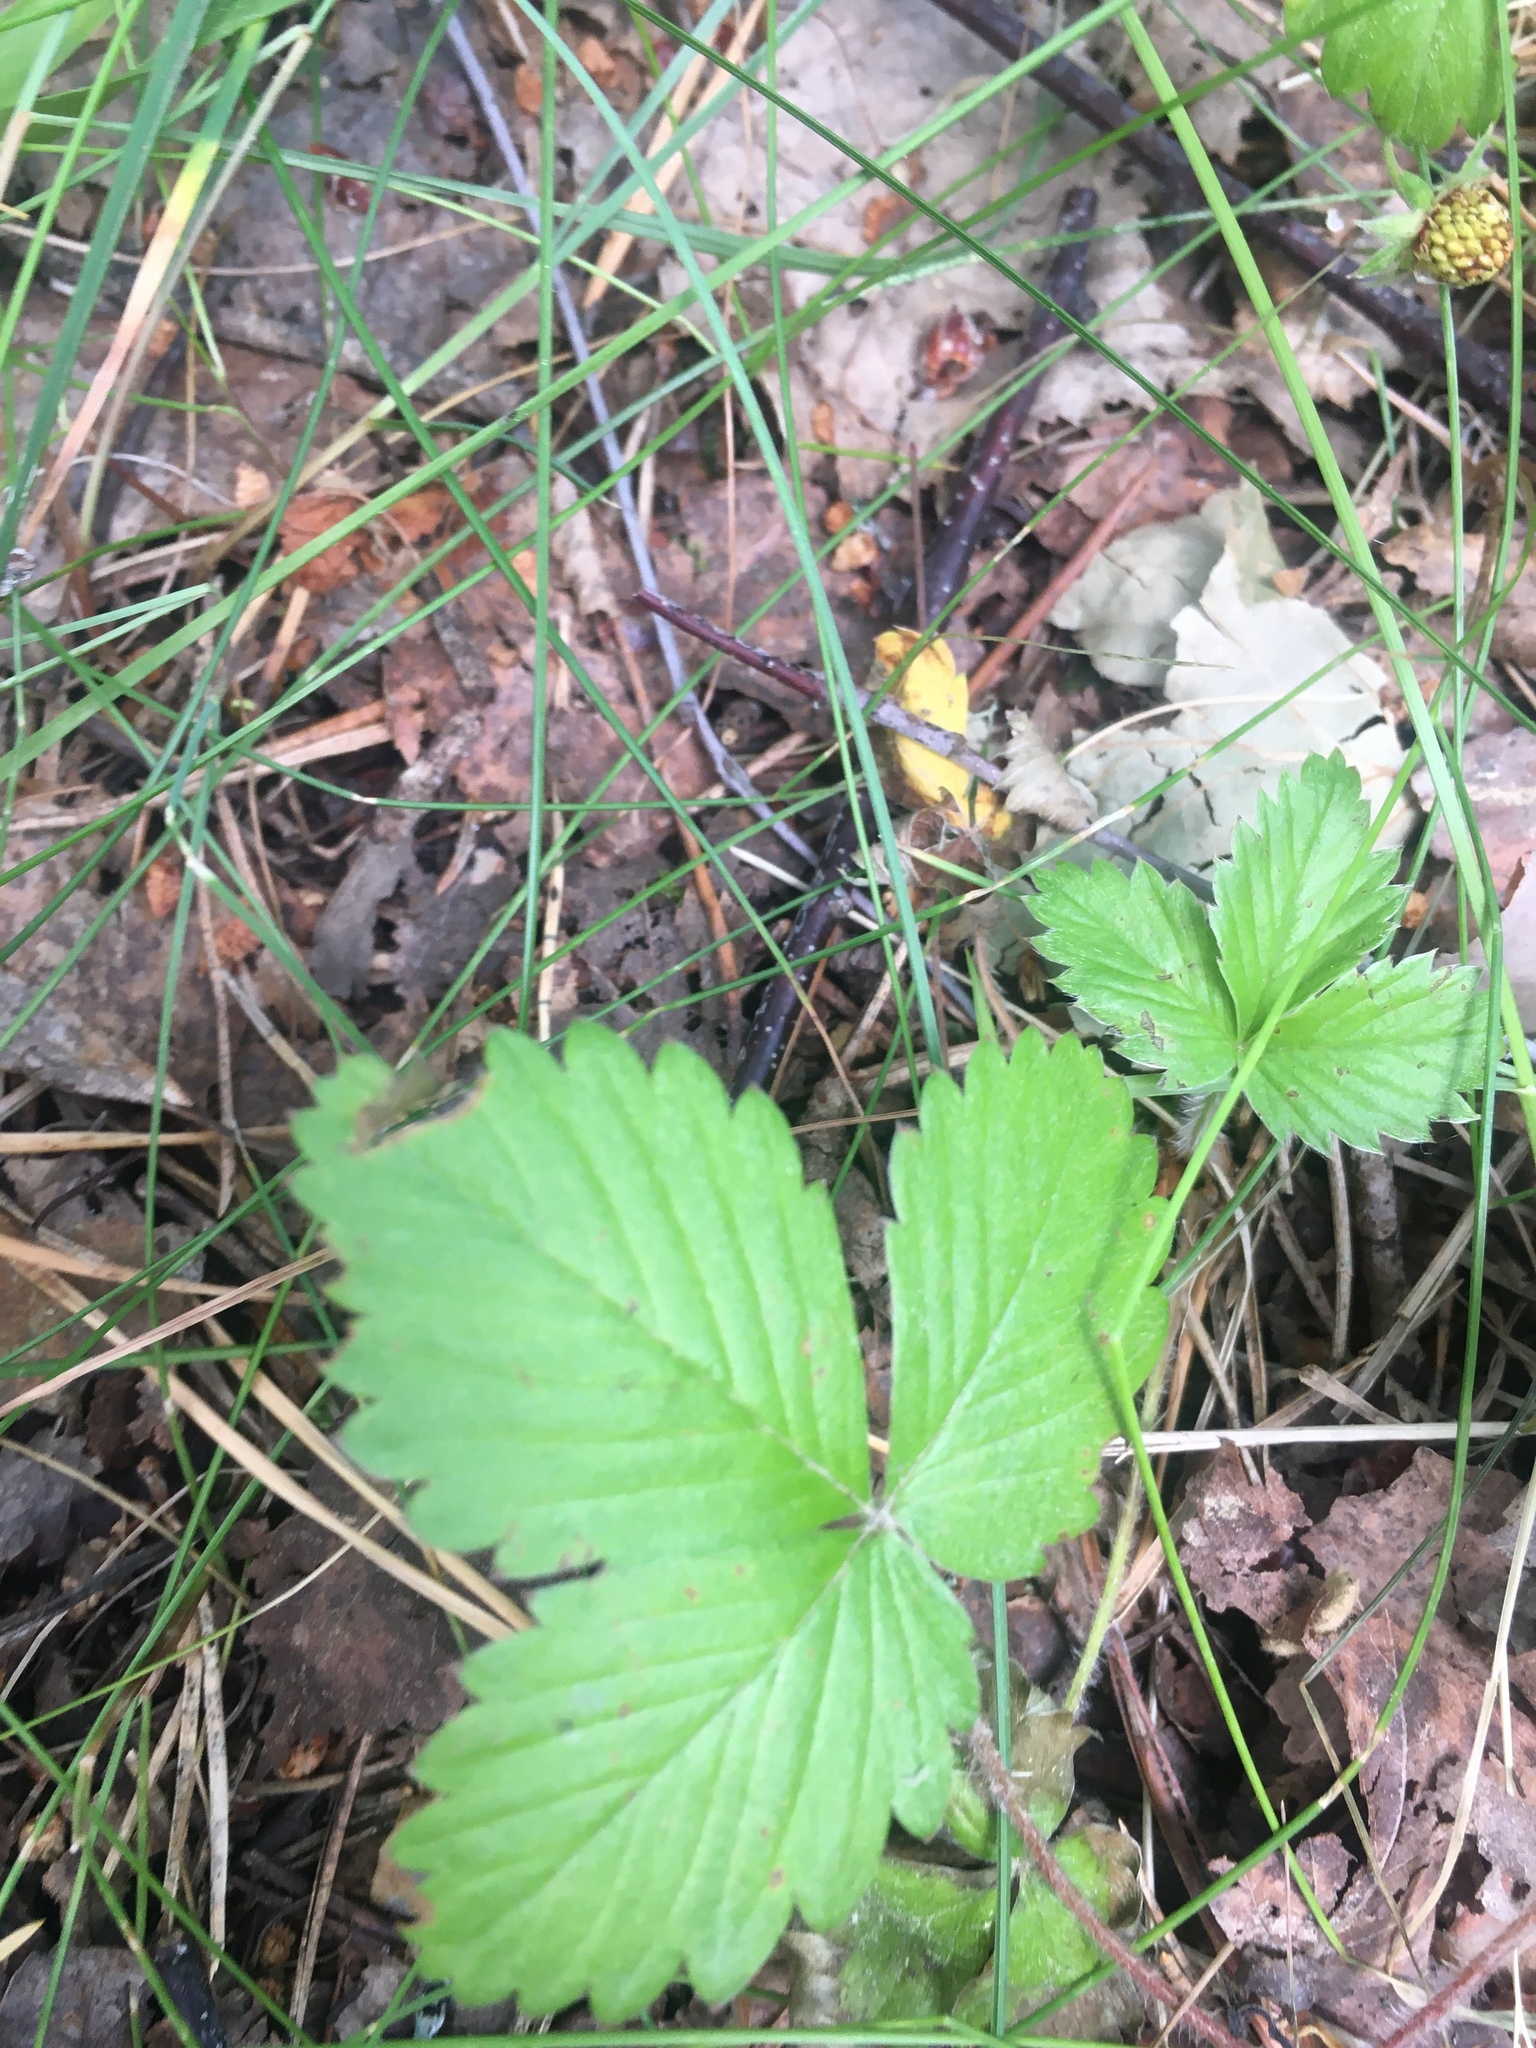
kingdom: Plantae
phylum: Tracheophyta
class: Magnoliopsida
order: Rosales
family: Rosaceae
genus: Fragaria
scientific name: Fragaria vesca
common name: Wild strawberry
